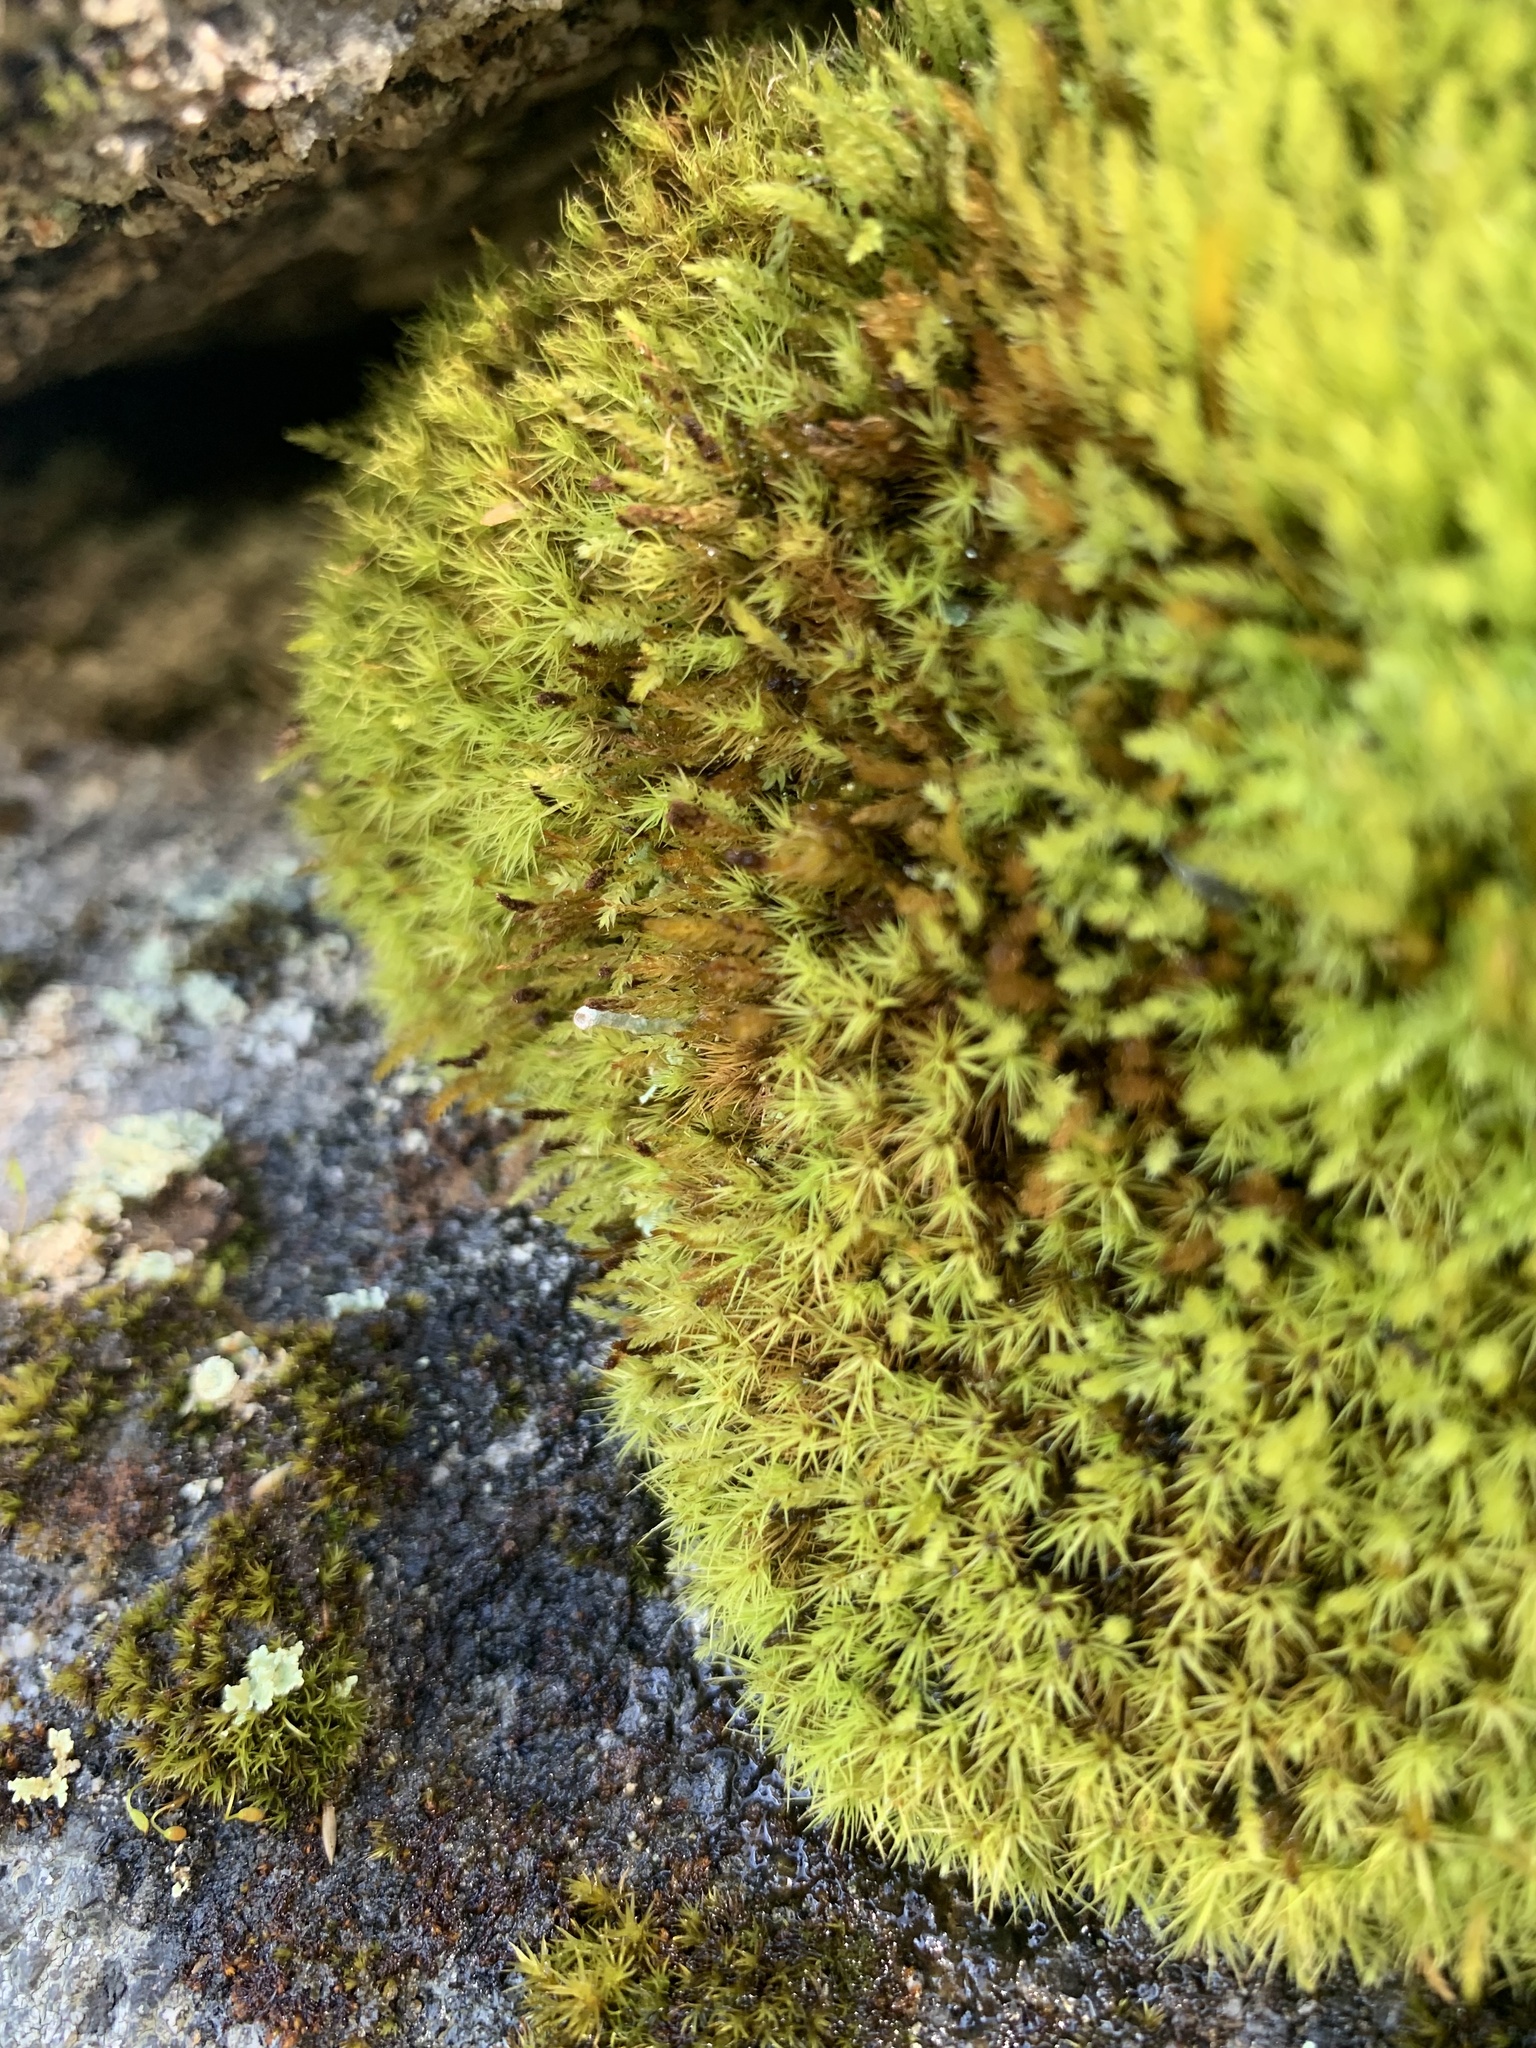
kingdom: Plantae
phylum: Bryophyta
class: Bryopsida
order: Orthodontiales
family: Orthodontiaceae
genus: Leptotheca
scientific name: Leptotheca gaudichaudii
